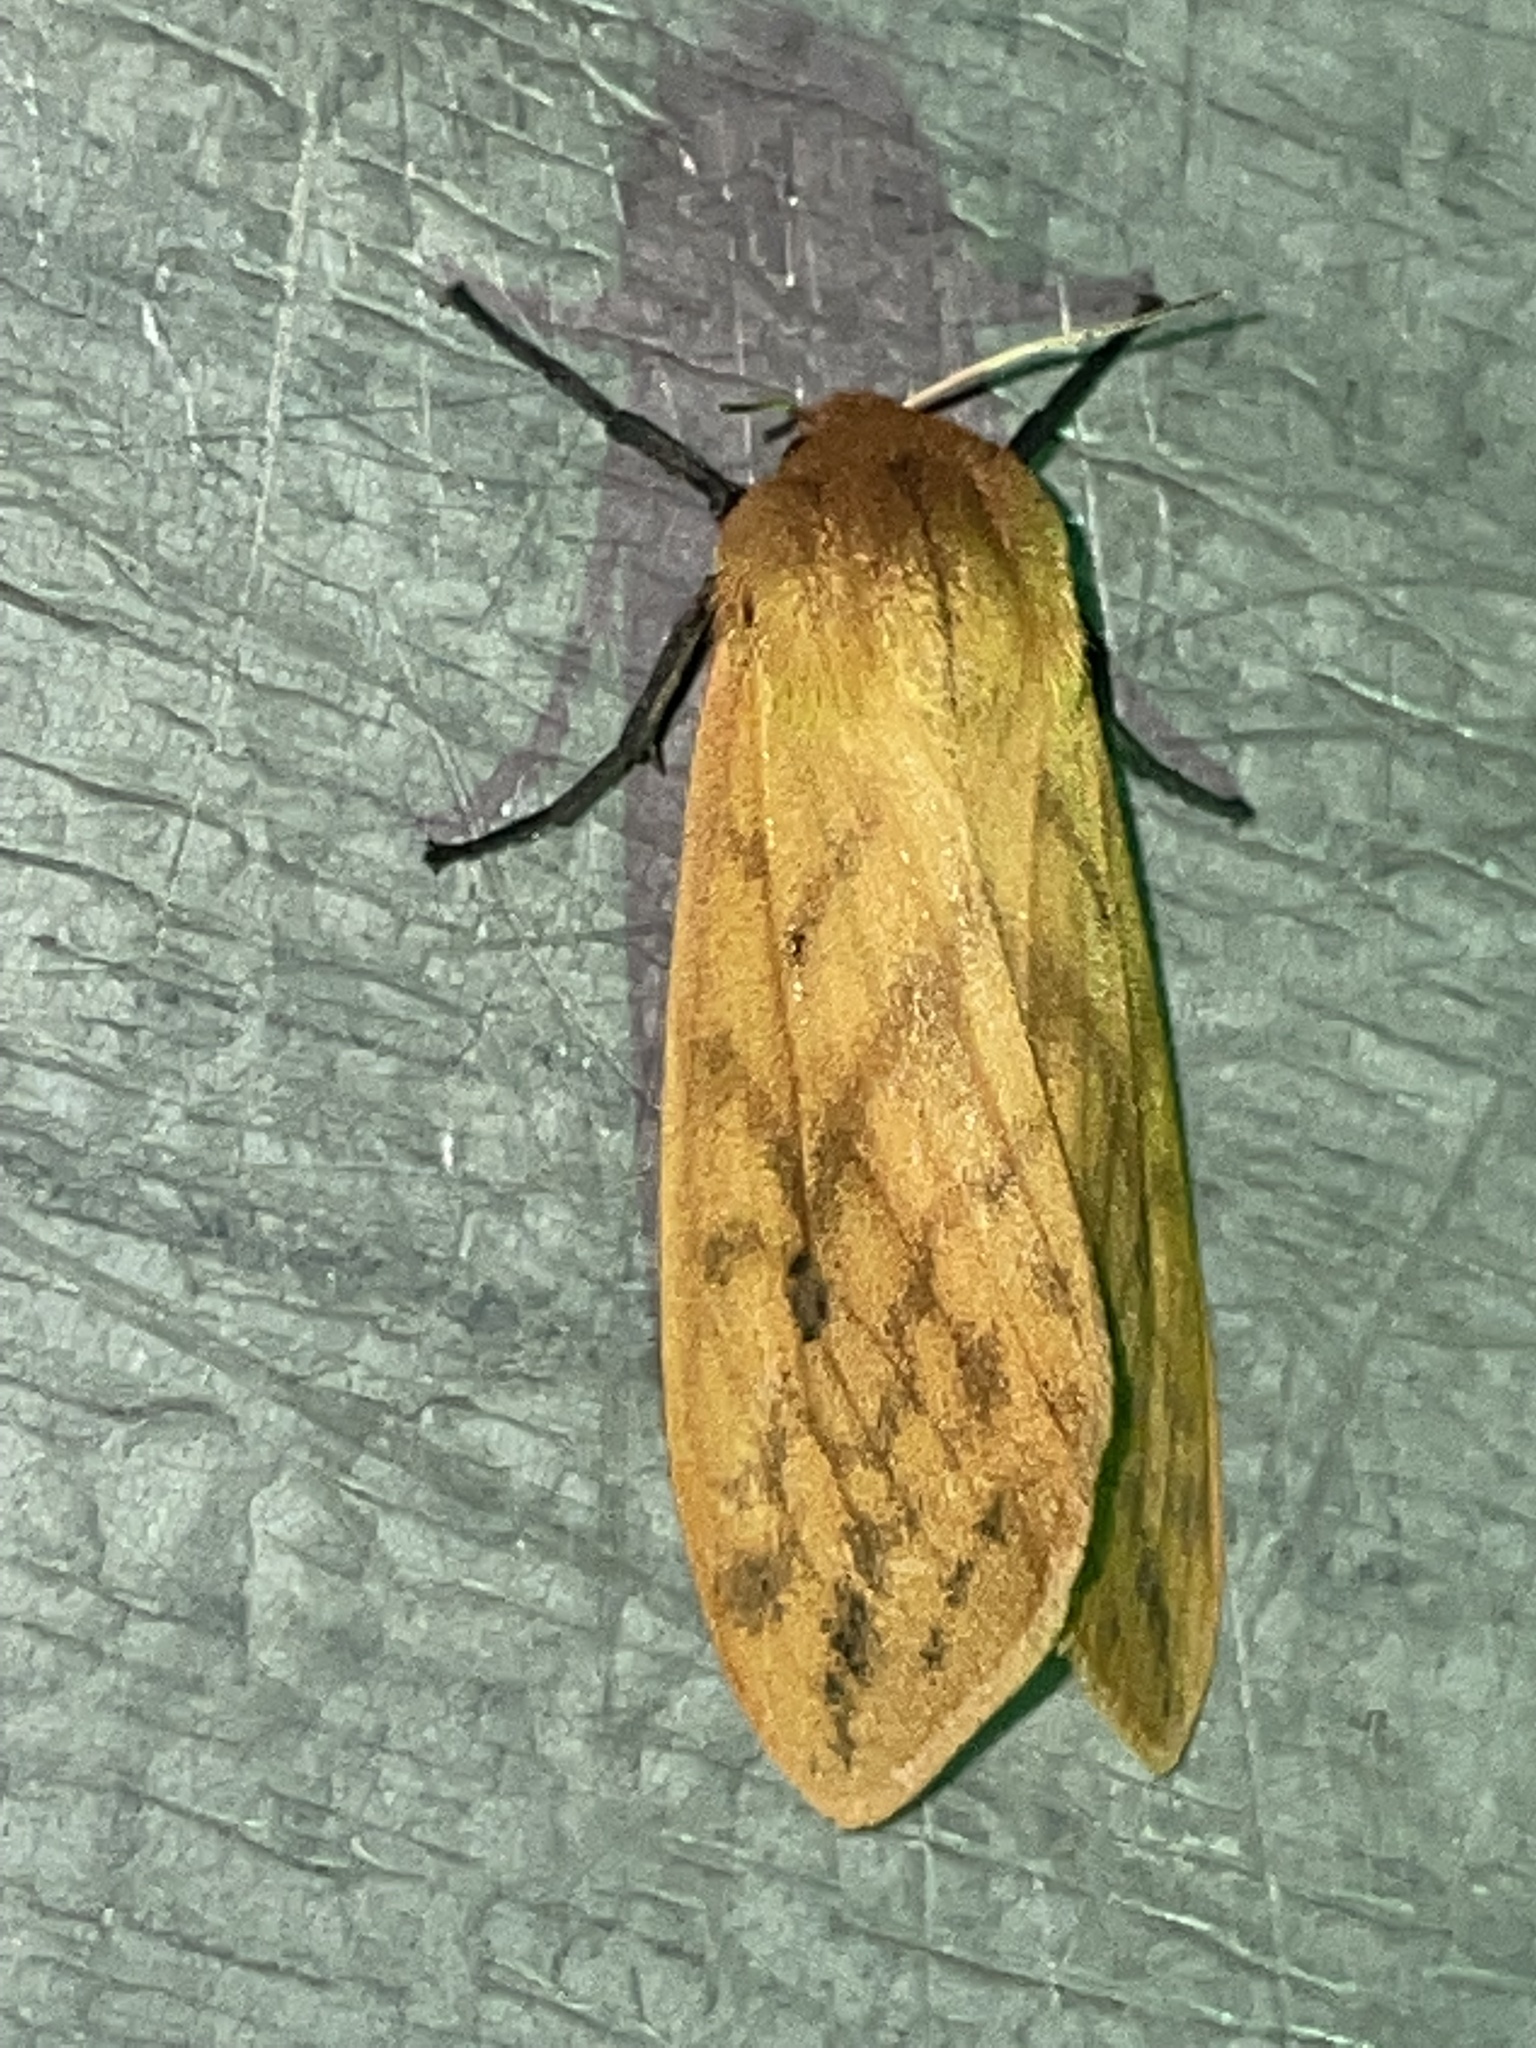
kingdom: Animalia
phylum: Arthropoda
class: Insecta
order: Lepidoptera
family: Erebidae
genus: Pyrrharctia
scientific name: Pyrrharctia isabella
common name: Isabella tiger moth
